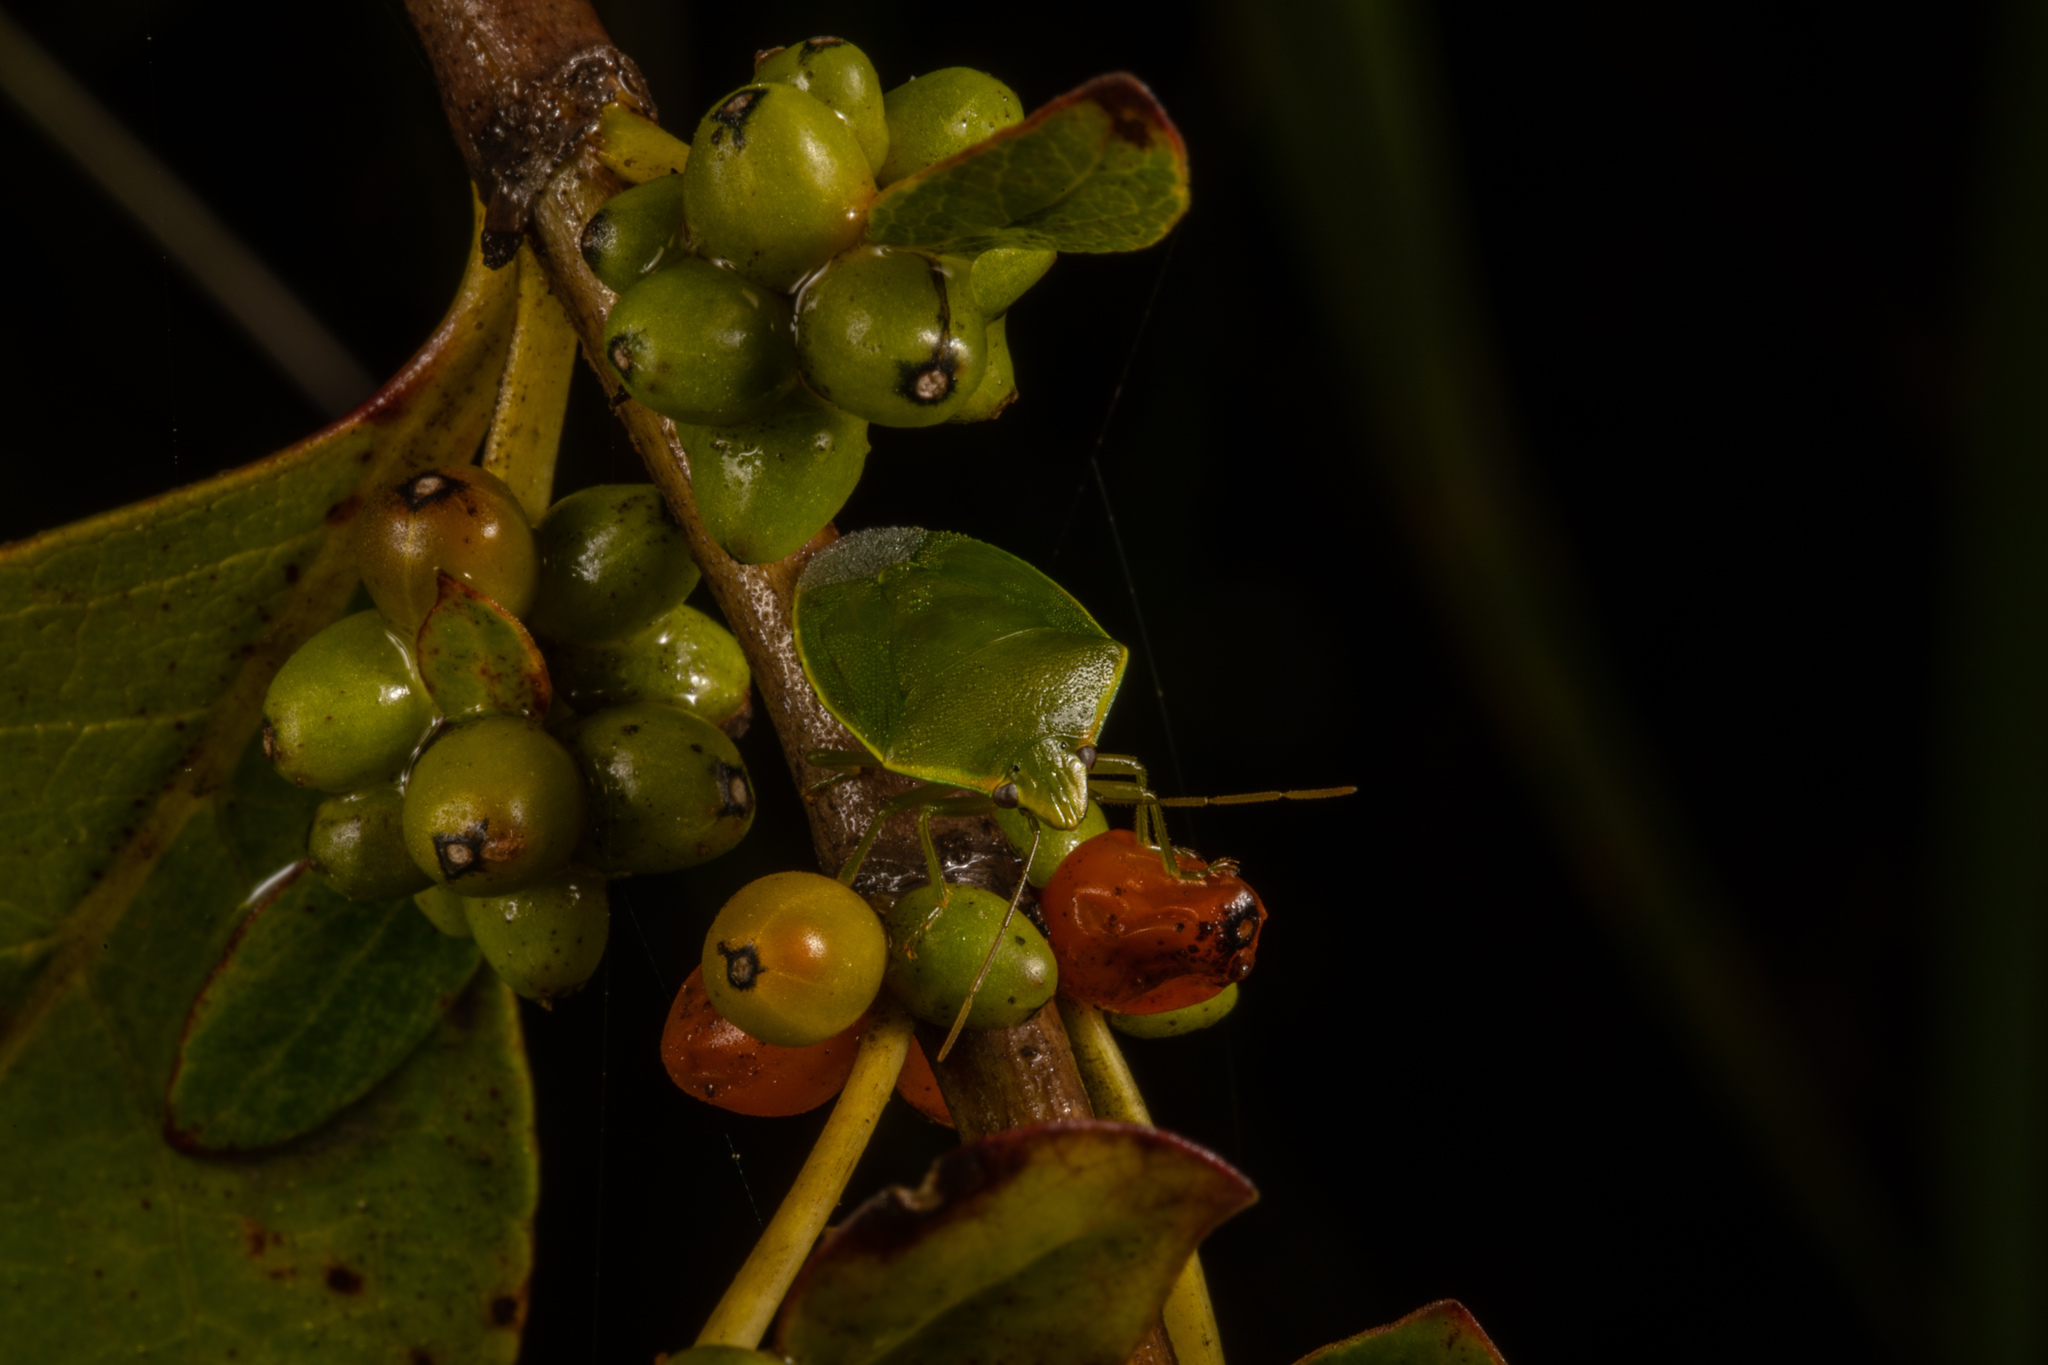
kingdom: Animalia
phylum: Arthropoda
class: Insecta
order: Hemiptera
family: Pentatomidae
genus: Glaucias
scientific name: Glaucias amyota
